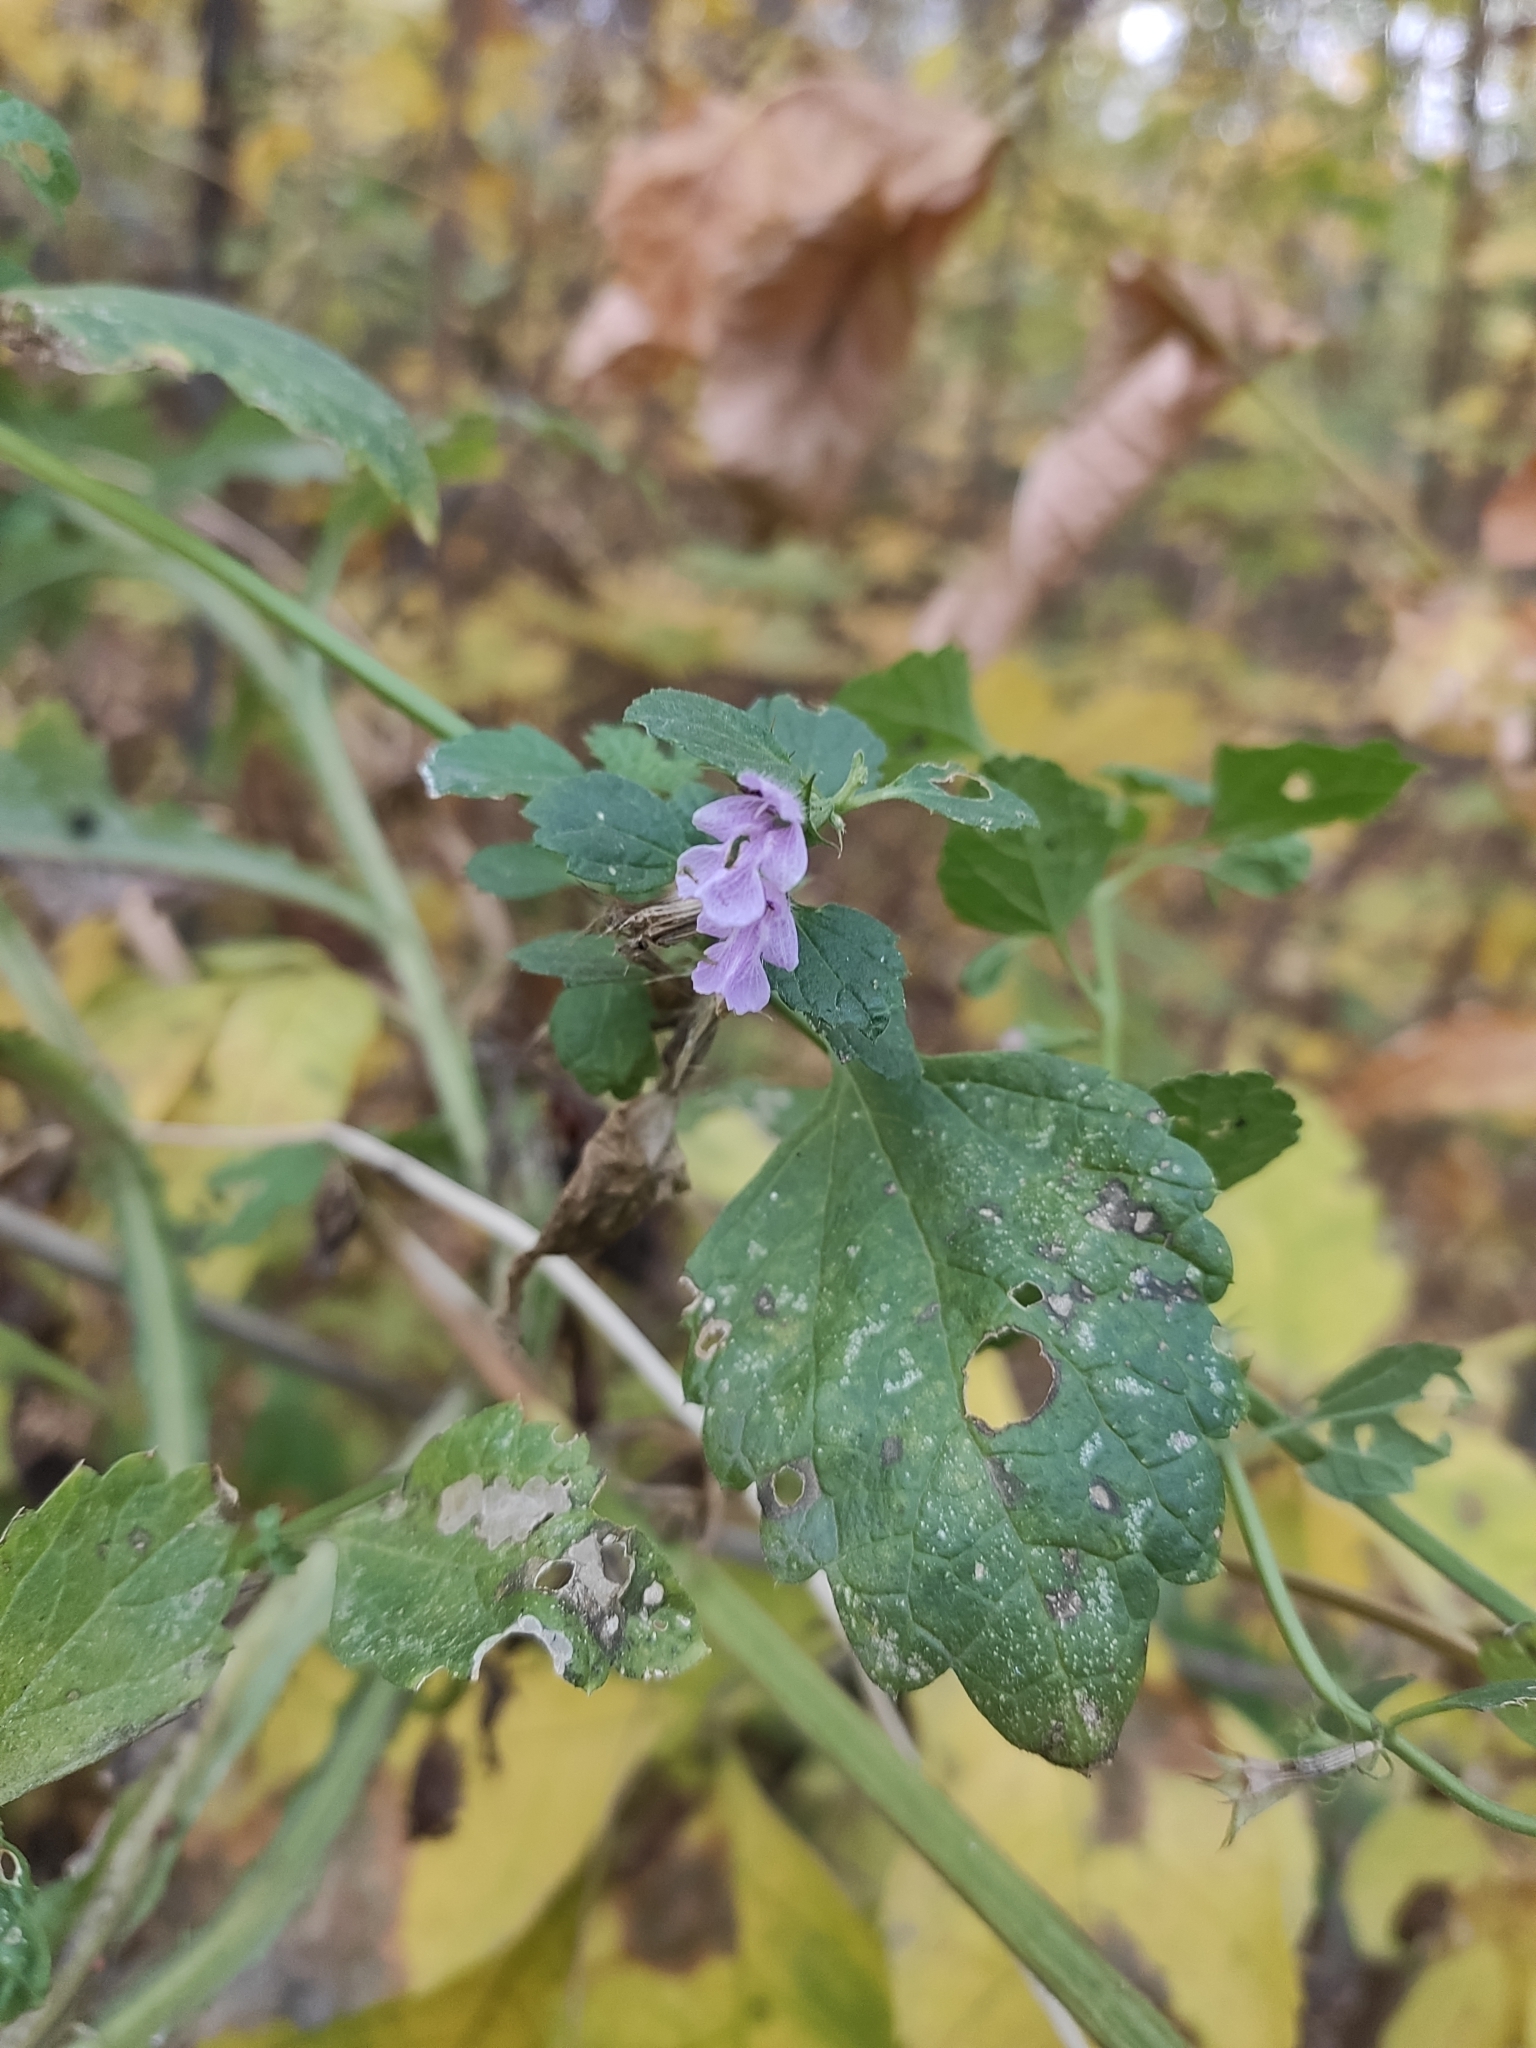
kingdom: Plantae
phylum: Tracheophyta
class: Magnoliopsida
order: Lamiales
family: Lamiaceae
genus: Ballota
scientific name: Ballota nigra
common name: Black horehound
